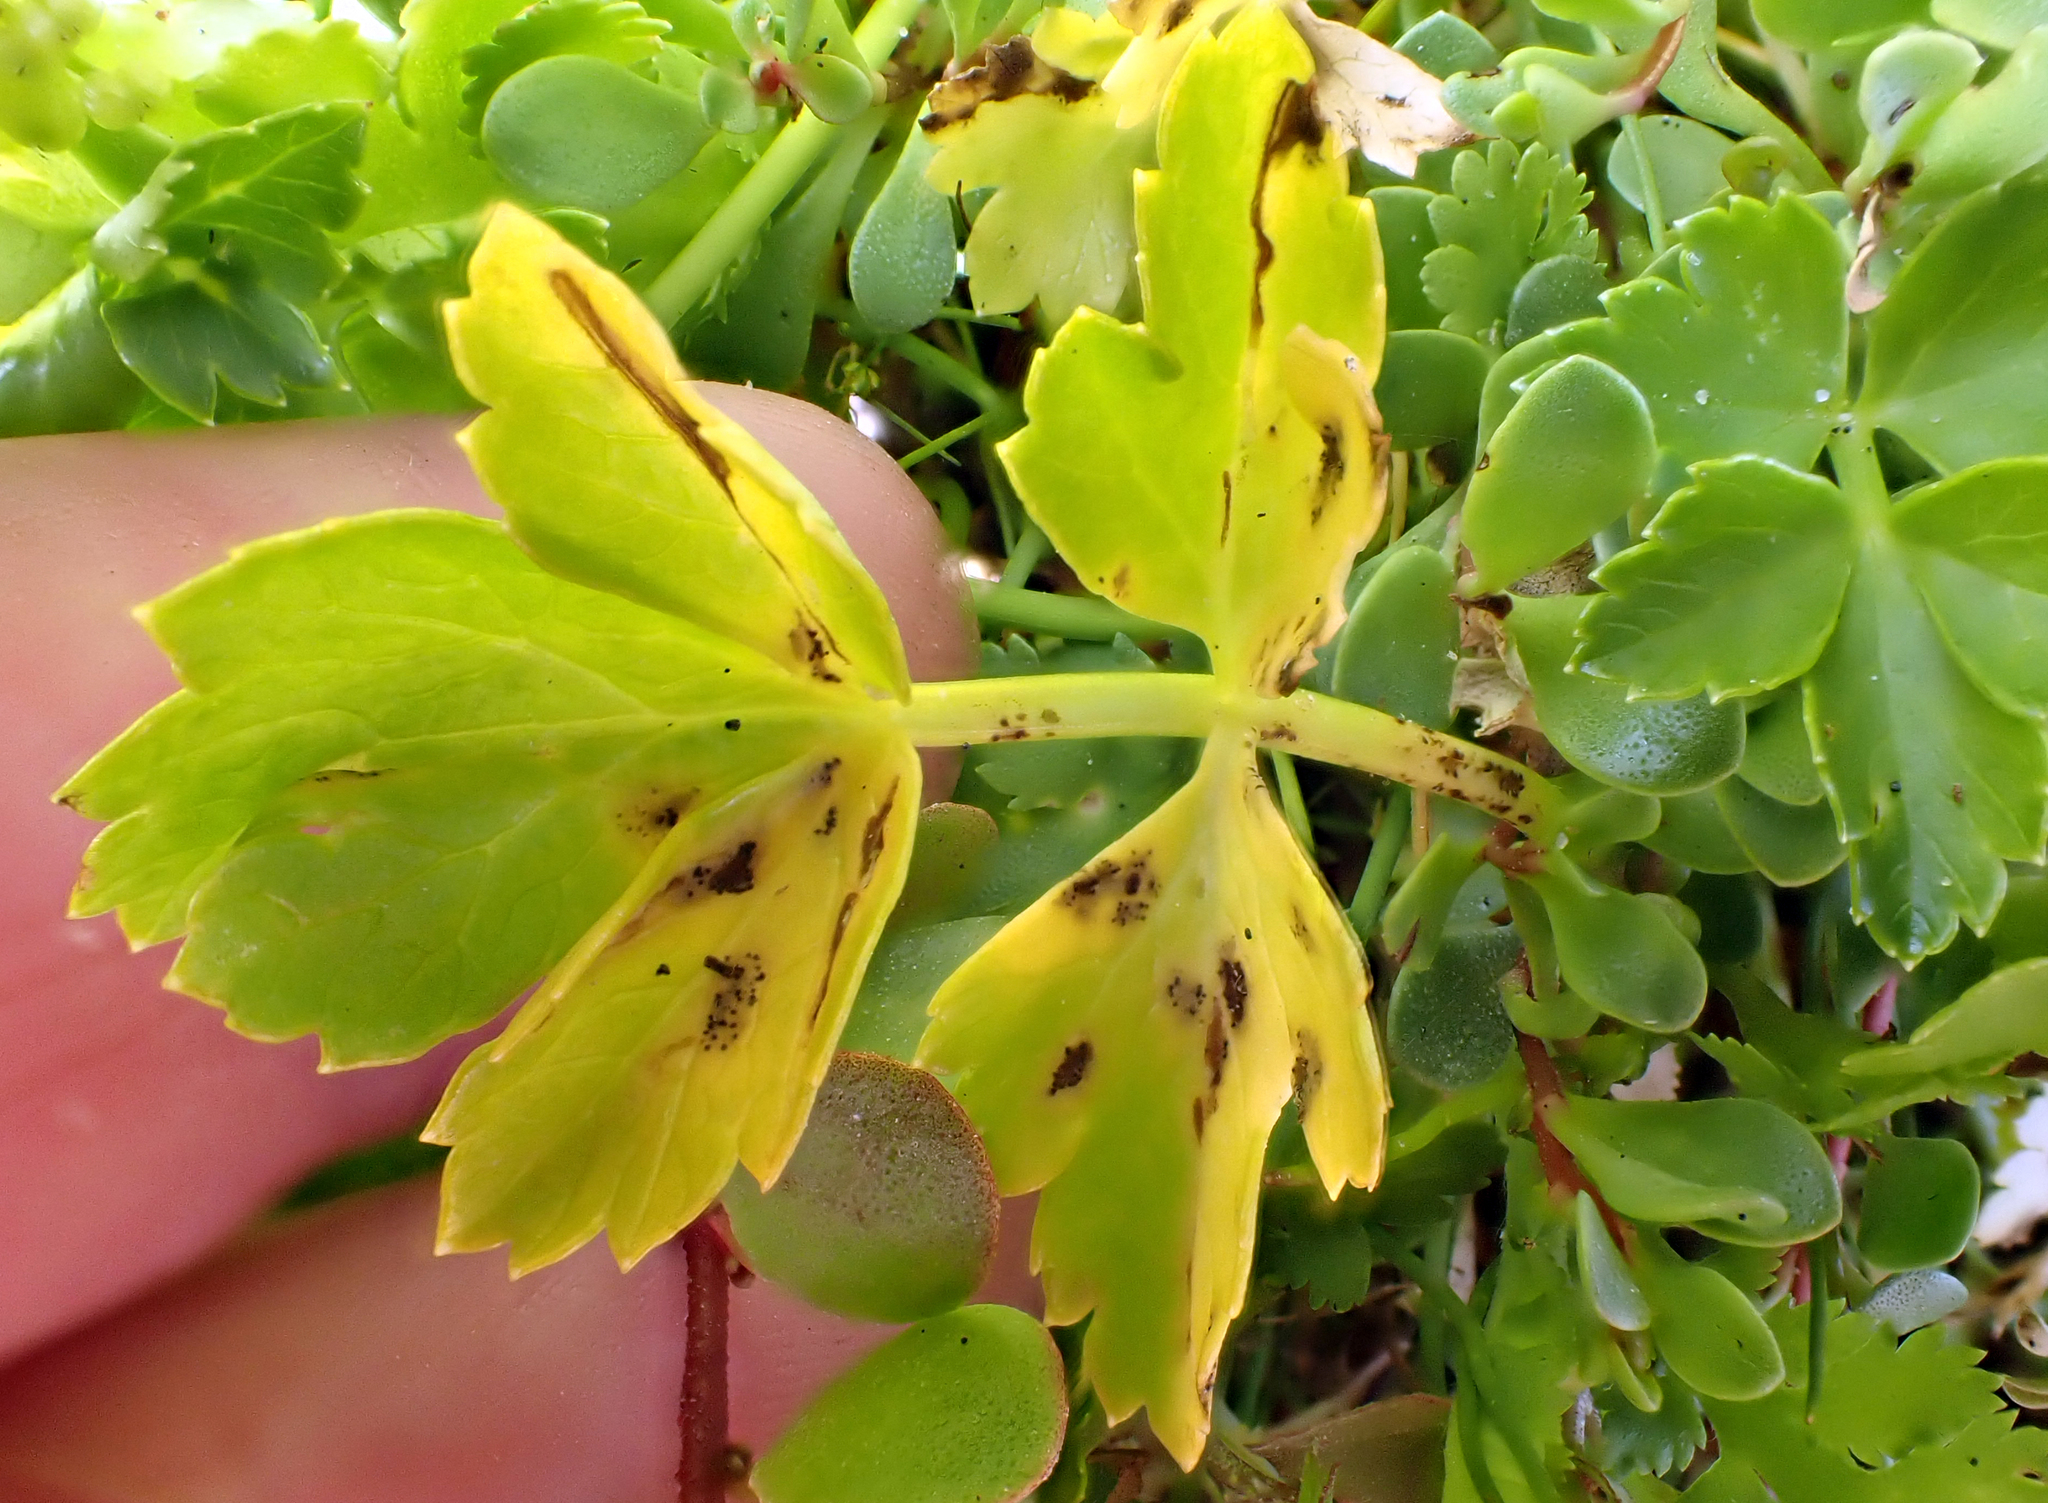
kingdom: Fungi
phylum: Ascomycota
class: Dothideomycetes
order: Mycosphaerellales
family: Mycosphaerellaceae
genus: Septoria
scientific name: Septoria apiicola
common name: Celery late blight
